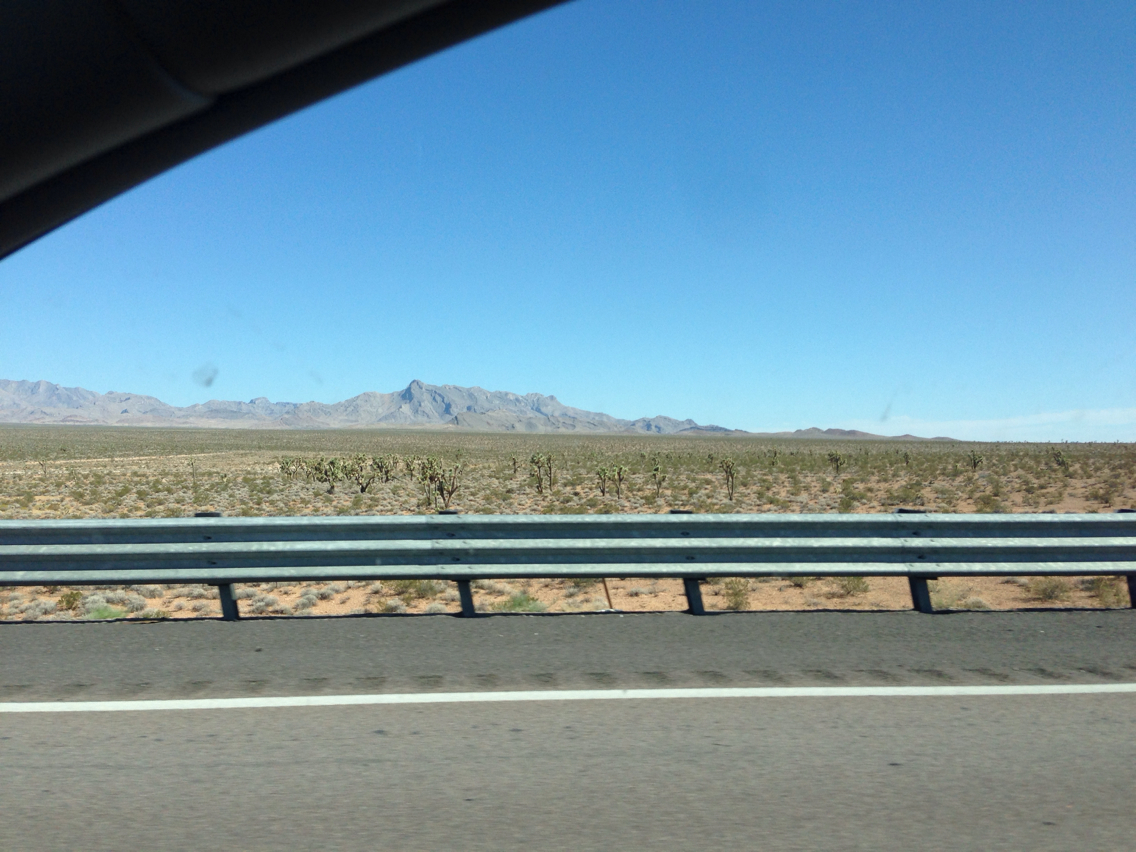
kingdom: Plantae
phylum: Tracheophyta
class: Liliopsida
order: Asparagales
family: Asparagaceae
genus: Yucca
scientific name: Yucca brevifolia
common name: Joshua tree
